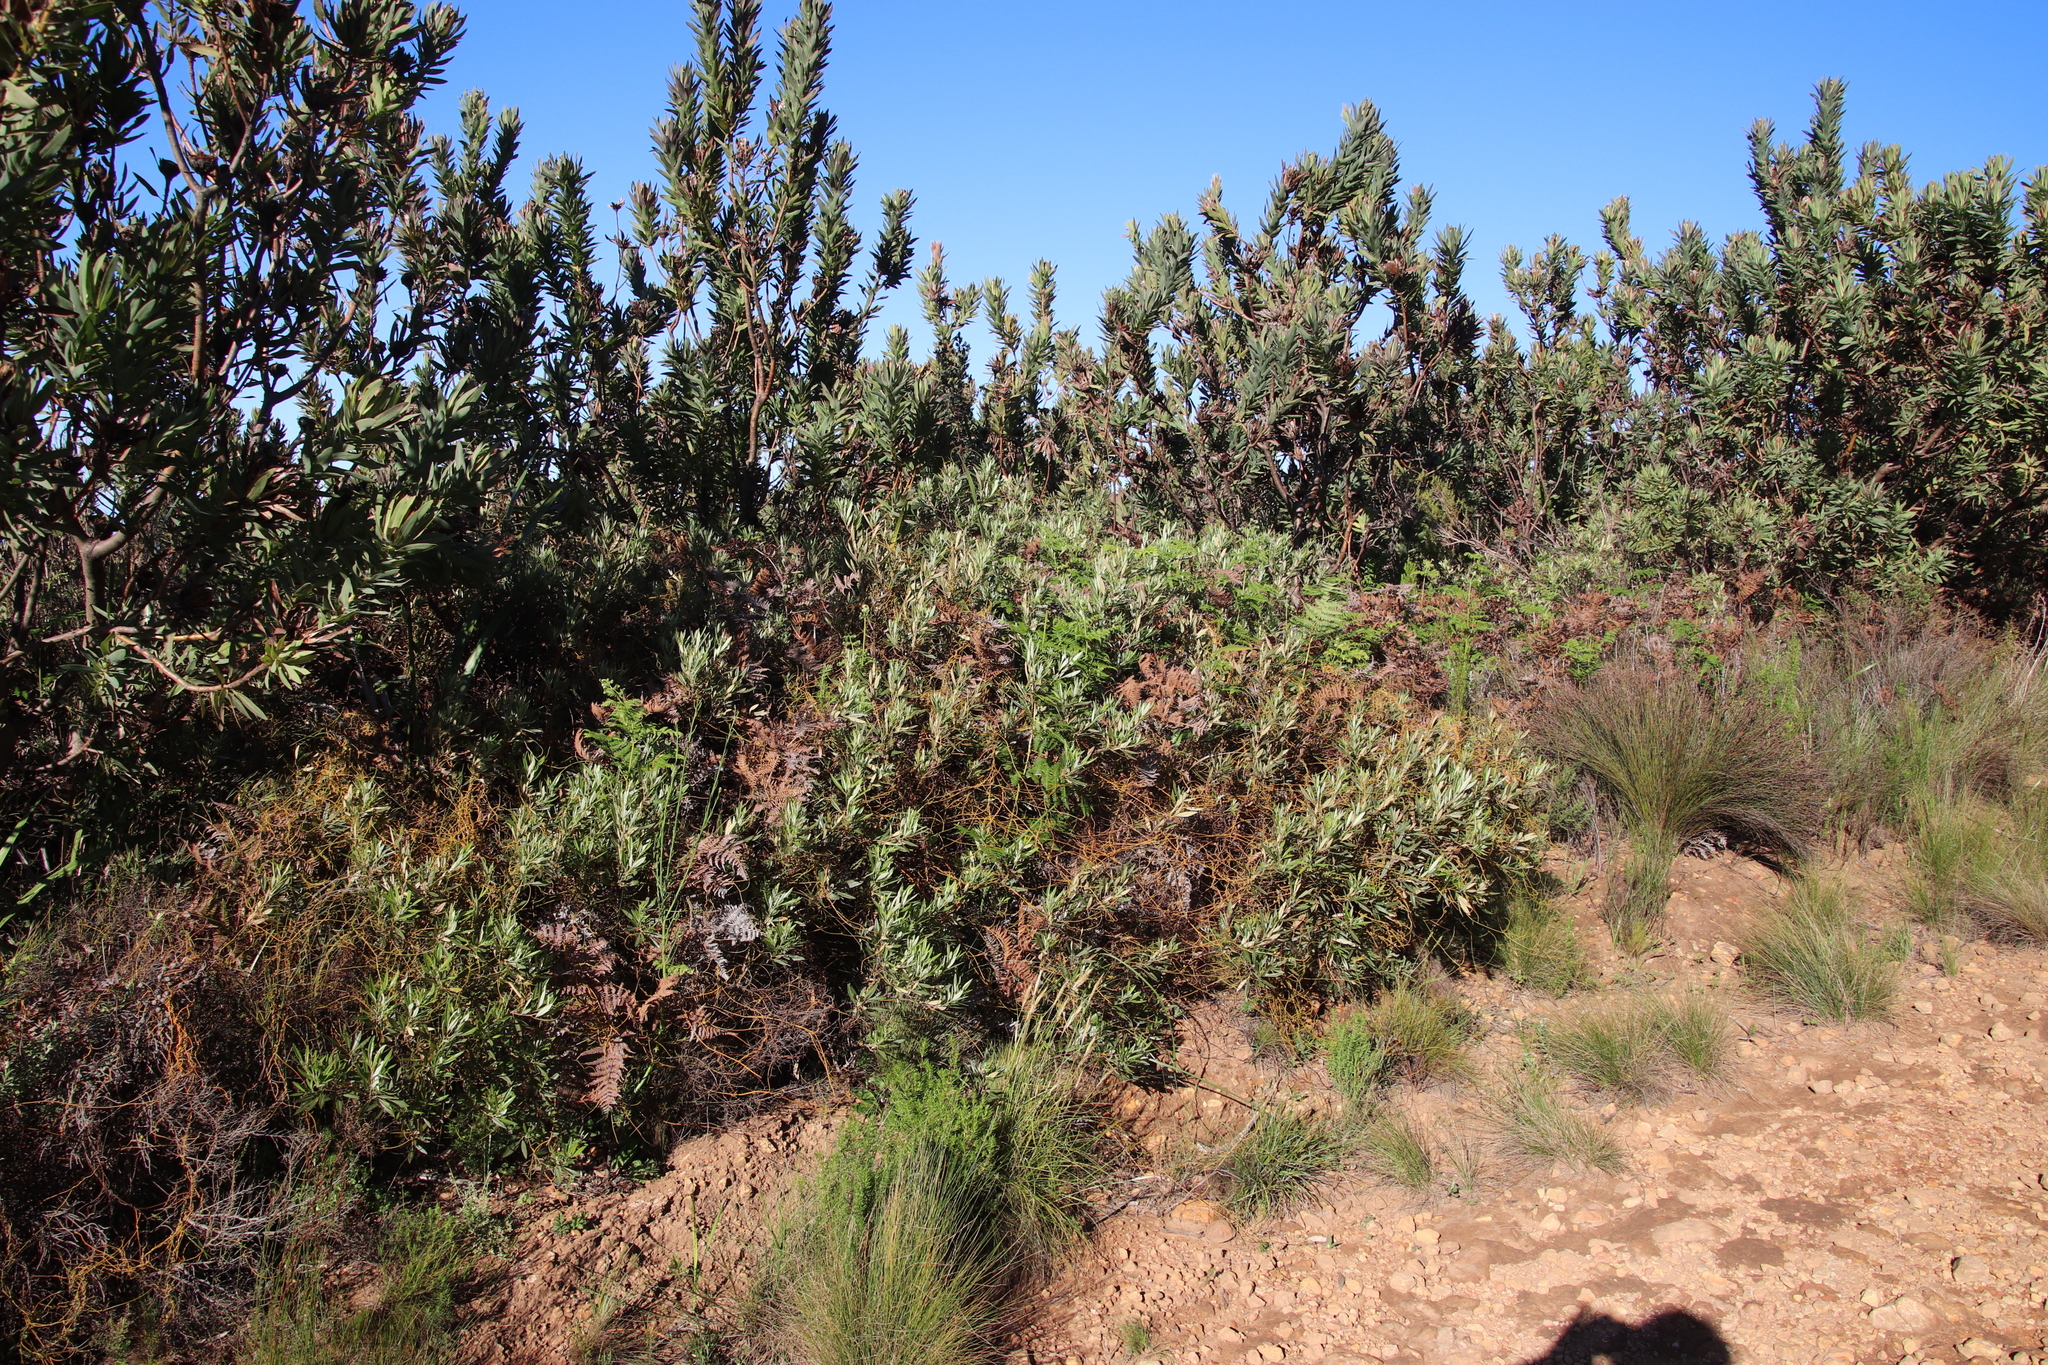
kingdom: Plantae
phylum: Tracheophyta
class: Magnoliopsida
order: Sapindales
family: Anacardiaceae
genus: Searsia
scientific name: Searsia angustifolia
